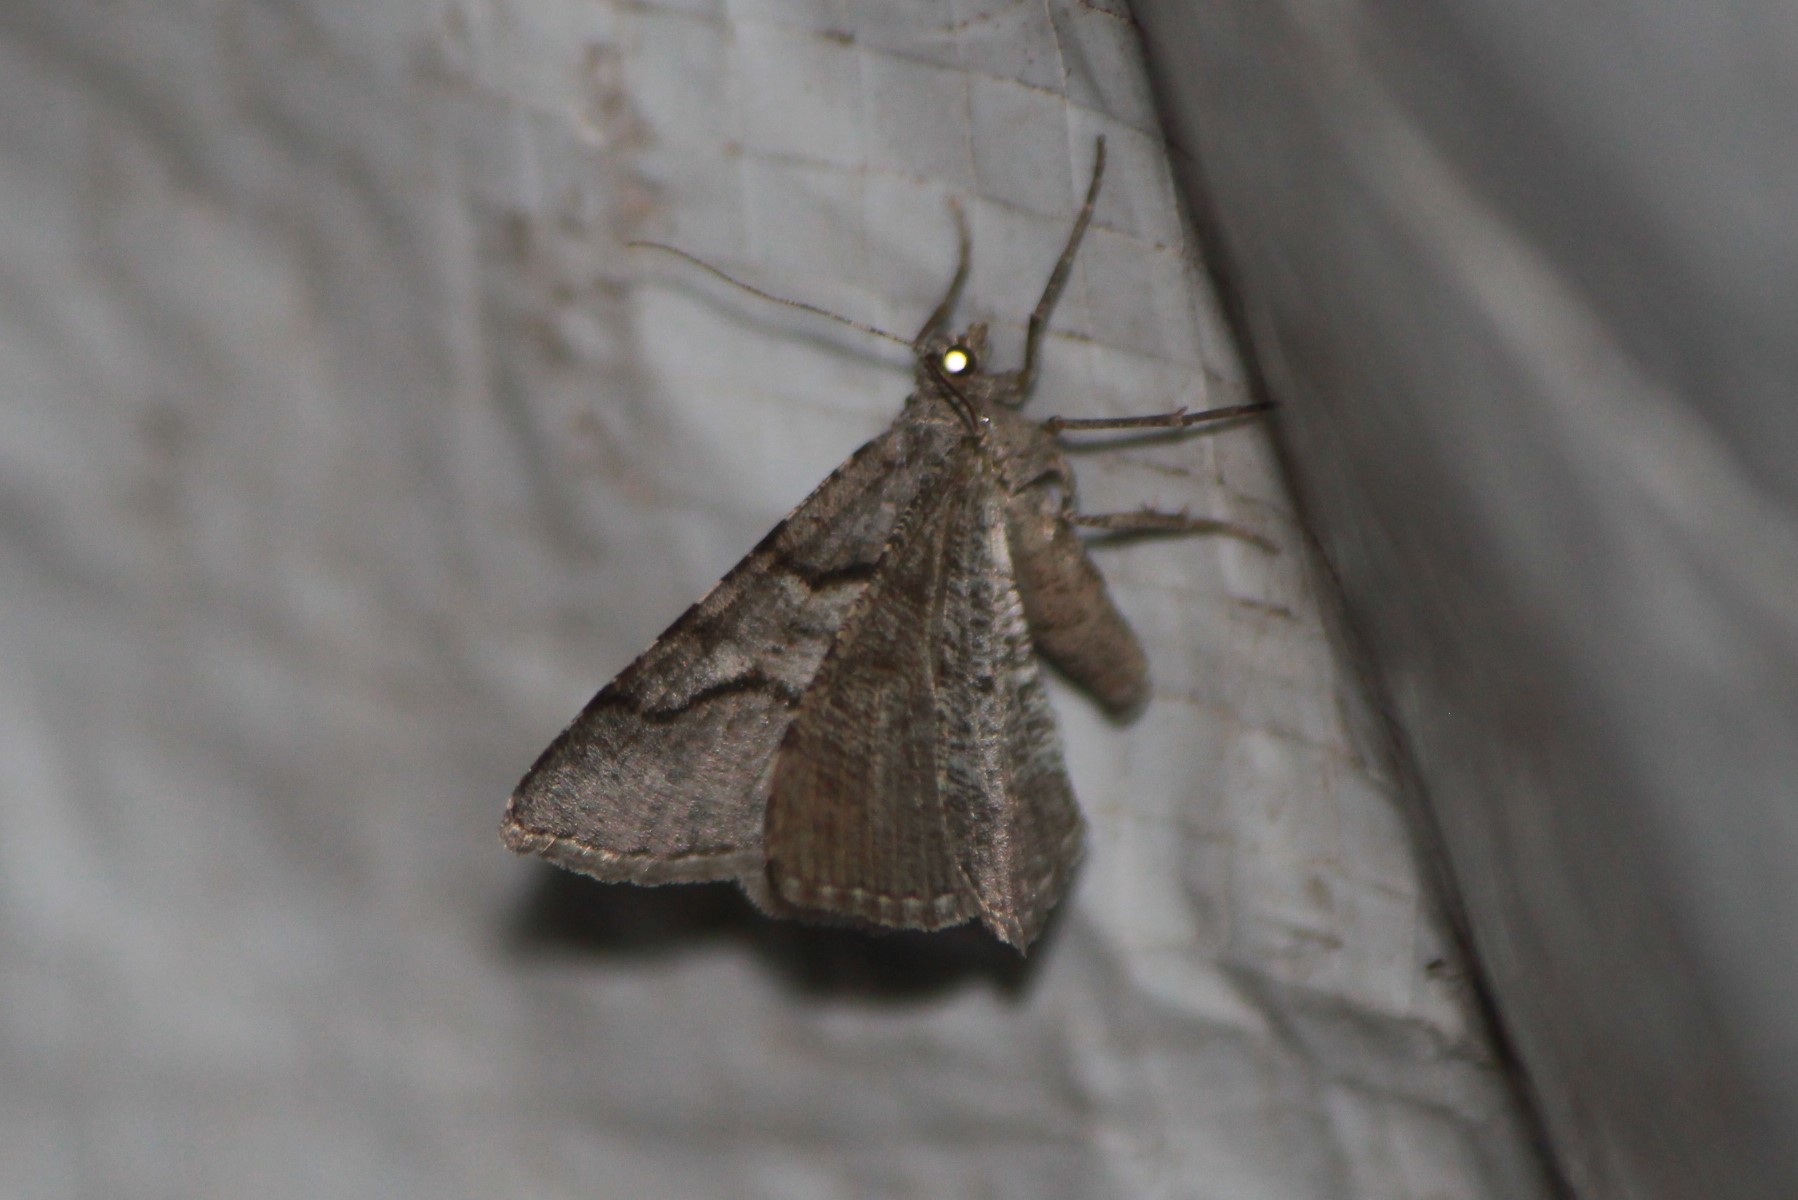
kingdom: Animalia
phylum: Arthropoda
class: Insecta
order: Lepidoptera
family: Geometridae
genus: Digrammia
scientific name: Digrammia continuata
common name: Curve-lined angle
